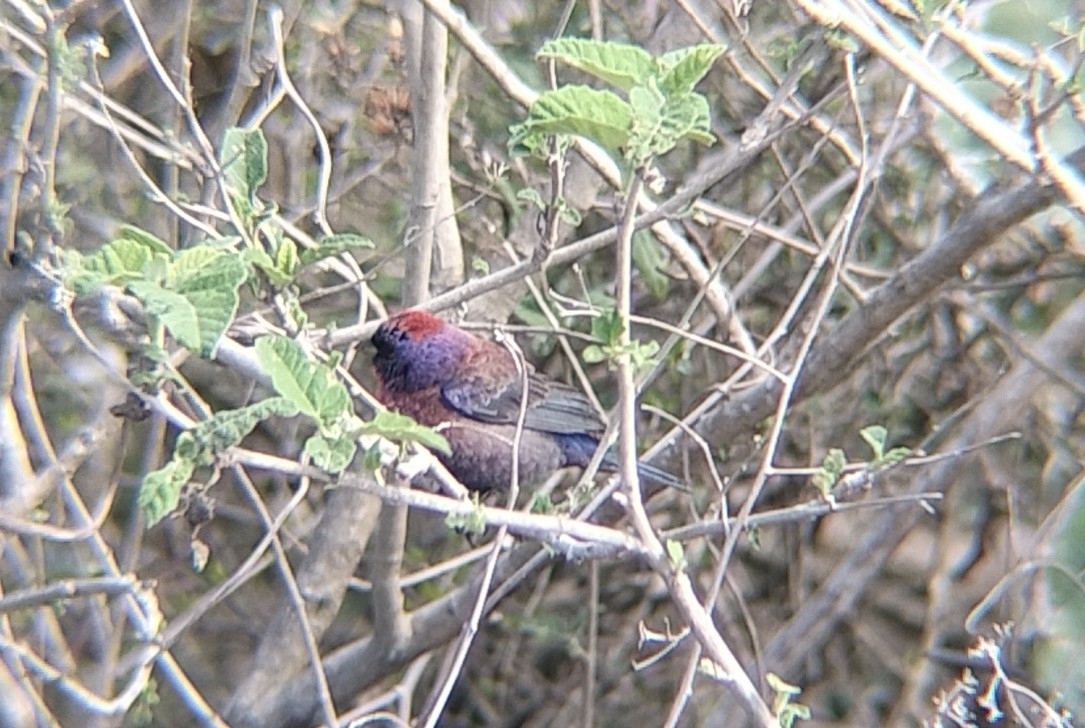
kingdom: Animalia
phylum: Chordata
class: Aves
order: Passeriformes
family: Cardinalidae
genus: Passerina
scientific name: Passerina versicolor
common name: Varied bunting
